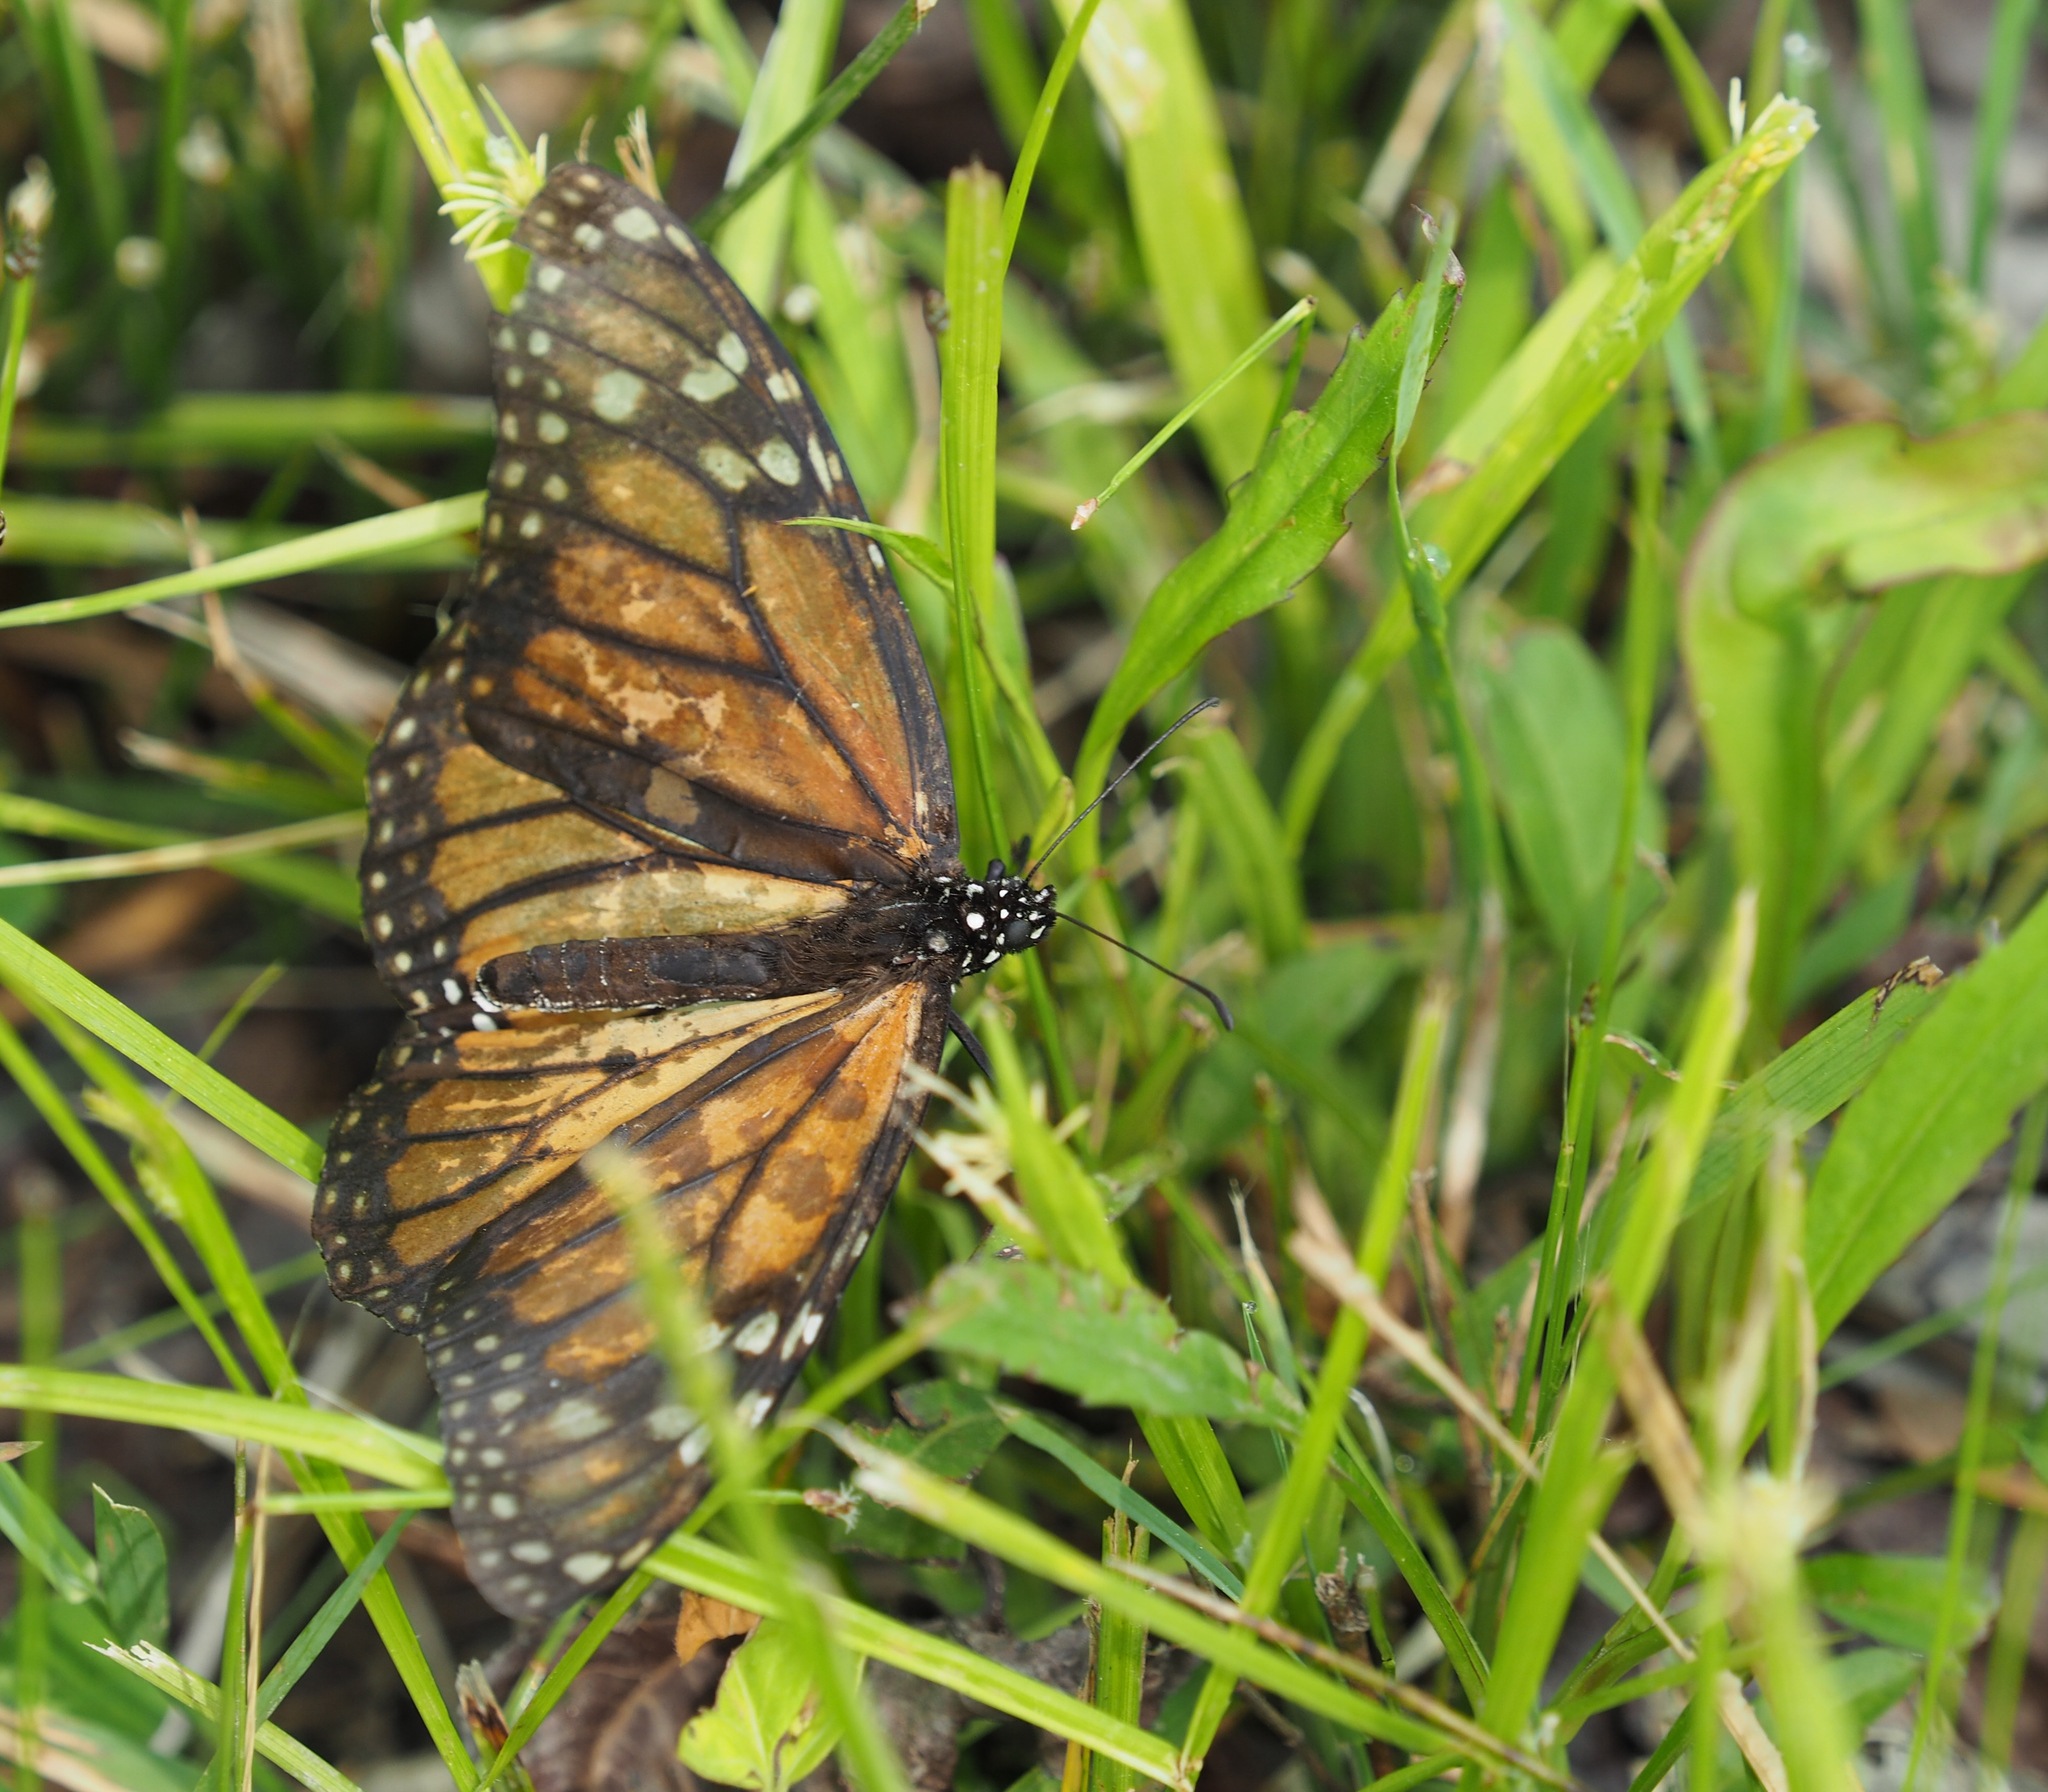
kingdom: Animalia
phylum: Arthropoda
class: Insecta
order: Lepidoptera
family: Nymphalidae
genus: Danaus
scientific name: Danaus plexippus
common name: Monarch
